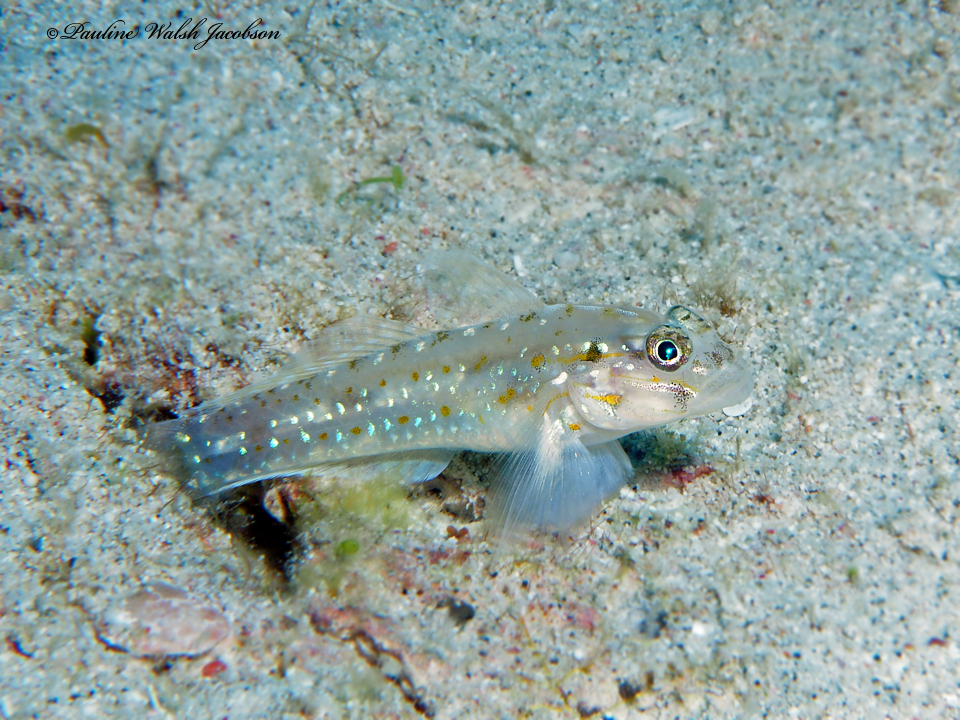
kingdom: Animalia
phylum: Chordata
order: Perciformes
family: Gobiidae
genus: Coryphopterus
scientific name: Coryphopterus venezuelae
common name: Sand-canyon goby
